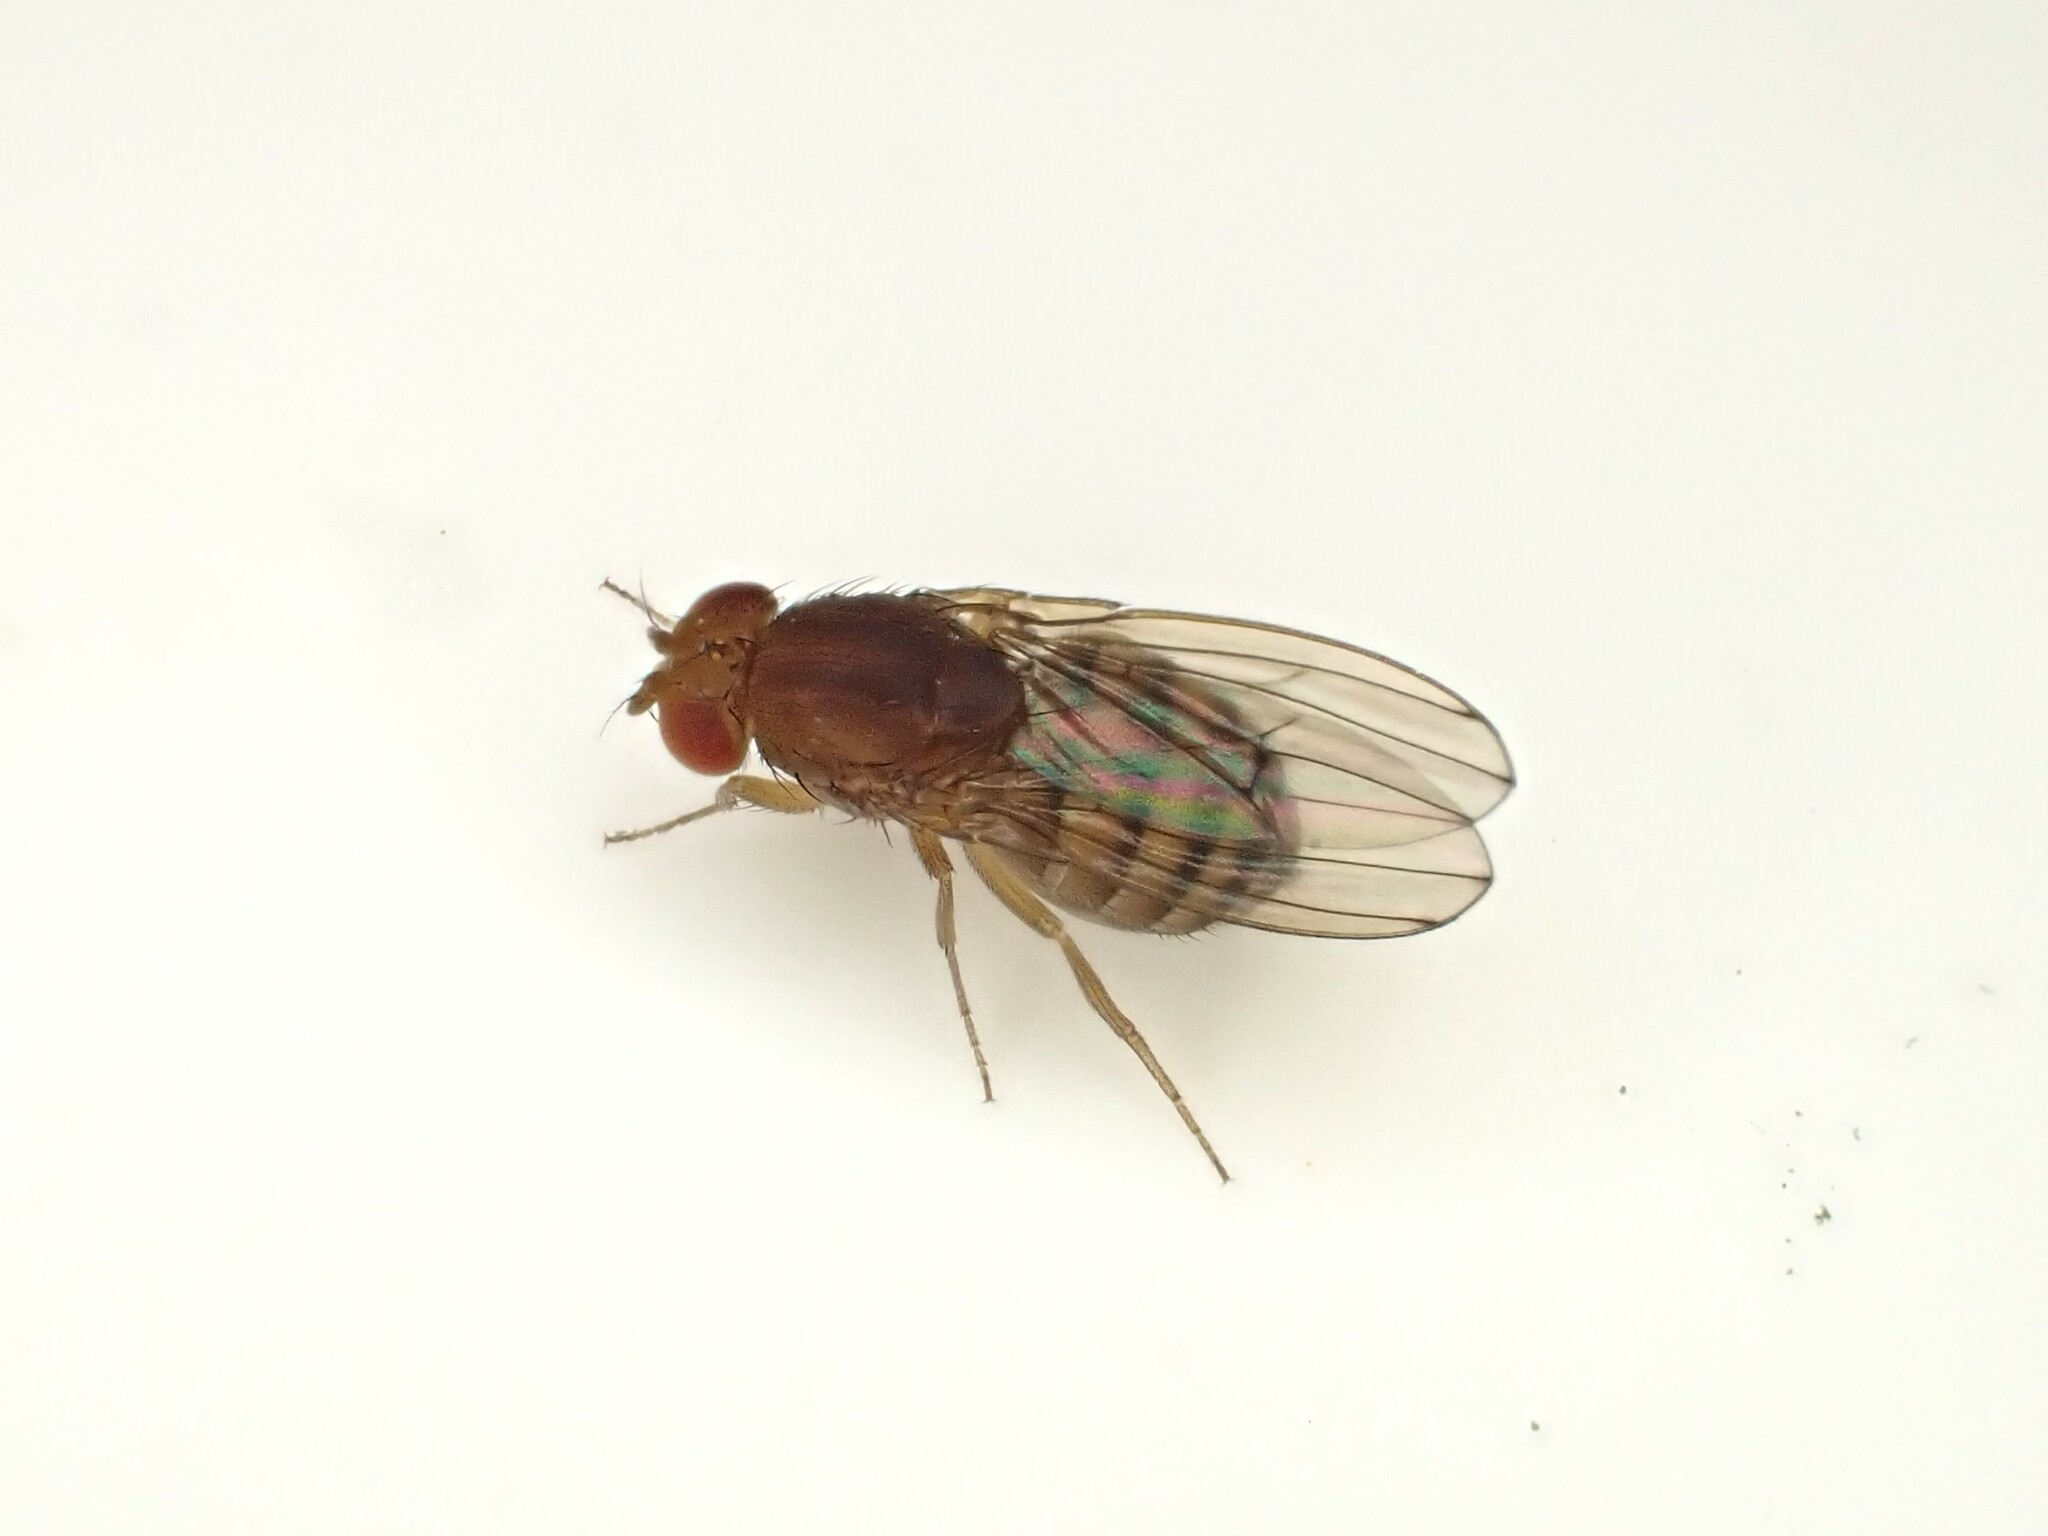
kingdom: Animalia
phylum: Arthropoda
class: Insecta
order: Diptera
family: Drosophilidae
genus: Drosophila
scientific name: Drosophila immigrans
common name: Pomace fly
